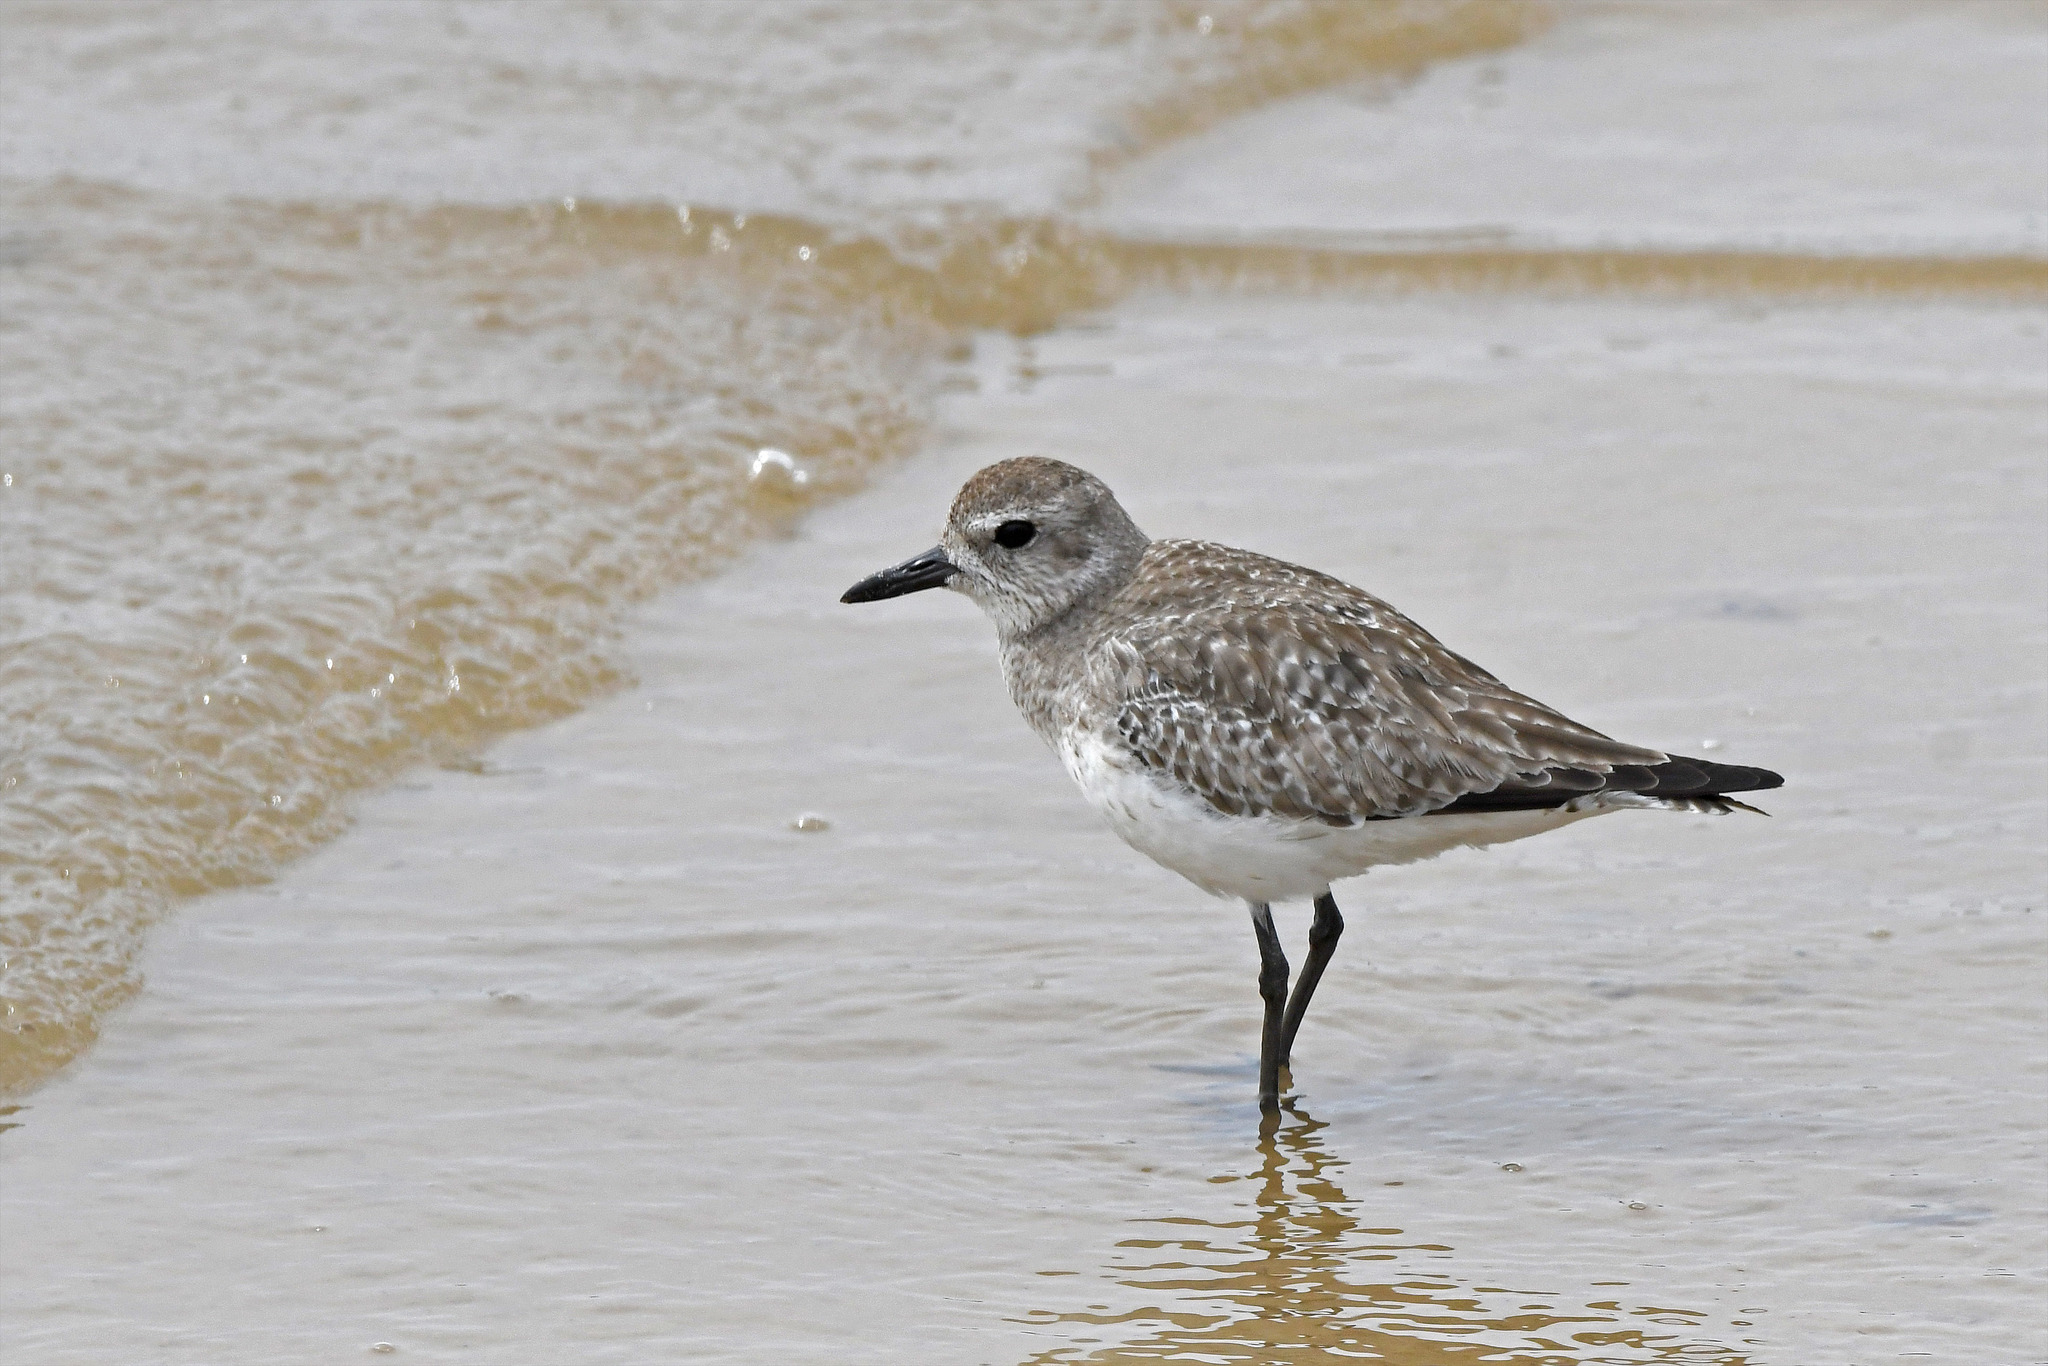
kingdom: Animalia
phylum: Chordata
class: Aves
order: Charadriiformes
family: Charadriidae
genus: Pluvialis
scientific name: Pluvialis squatarola
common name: Grey plover
